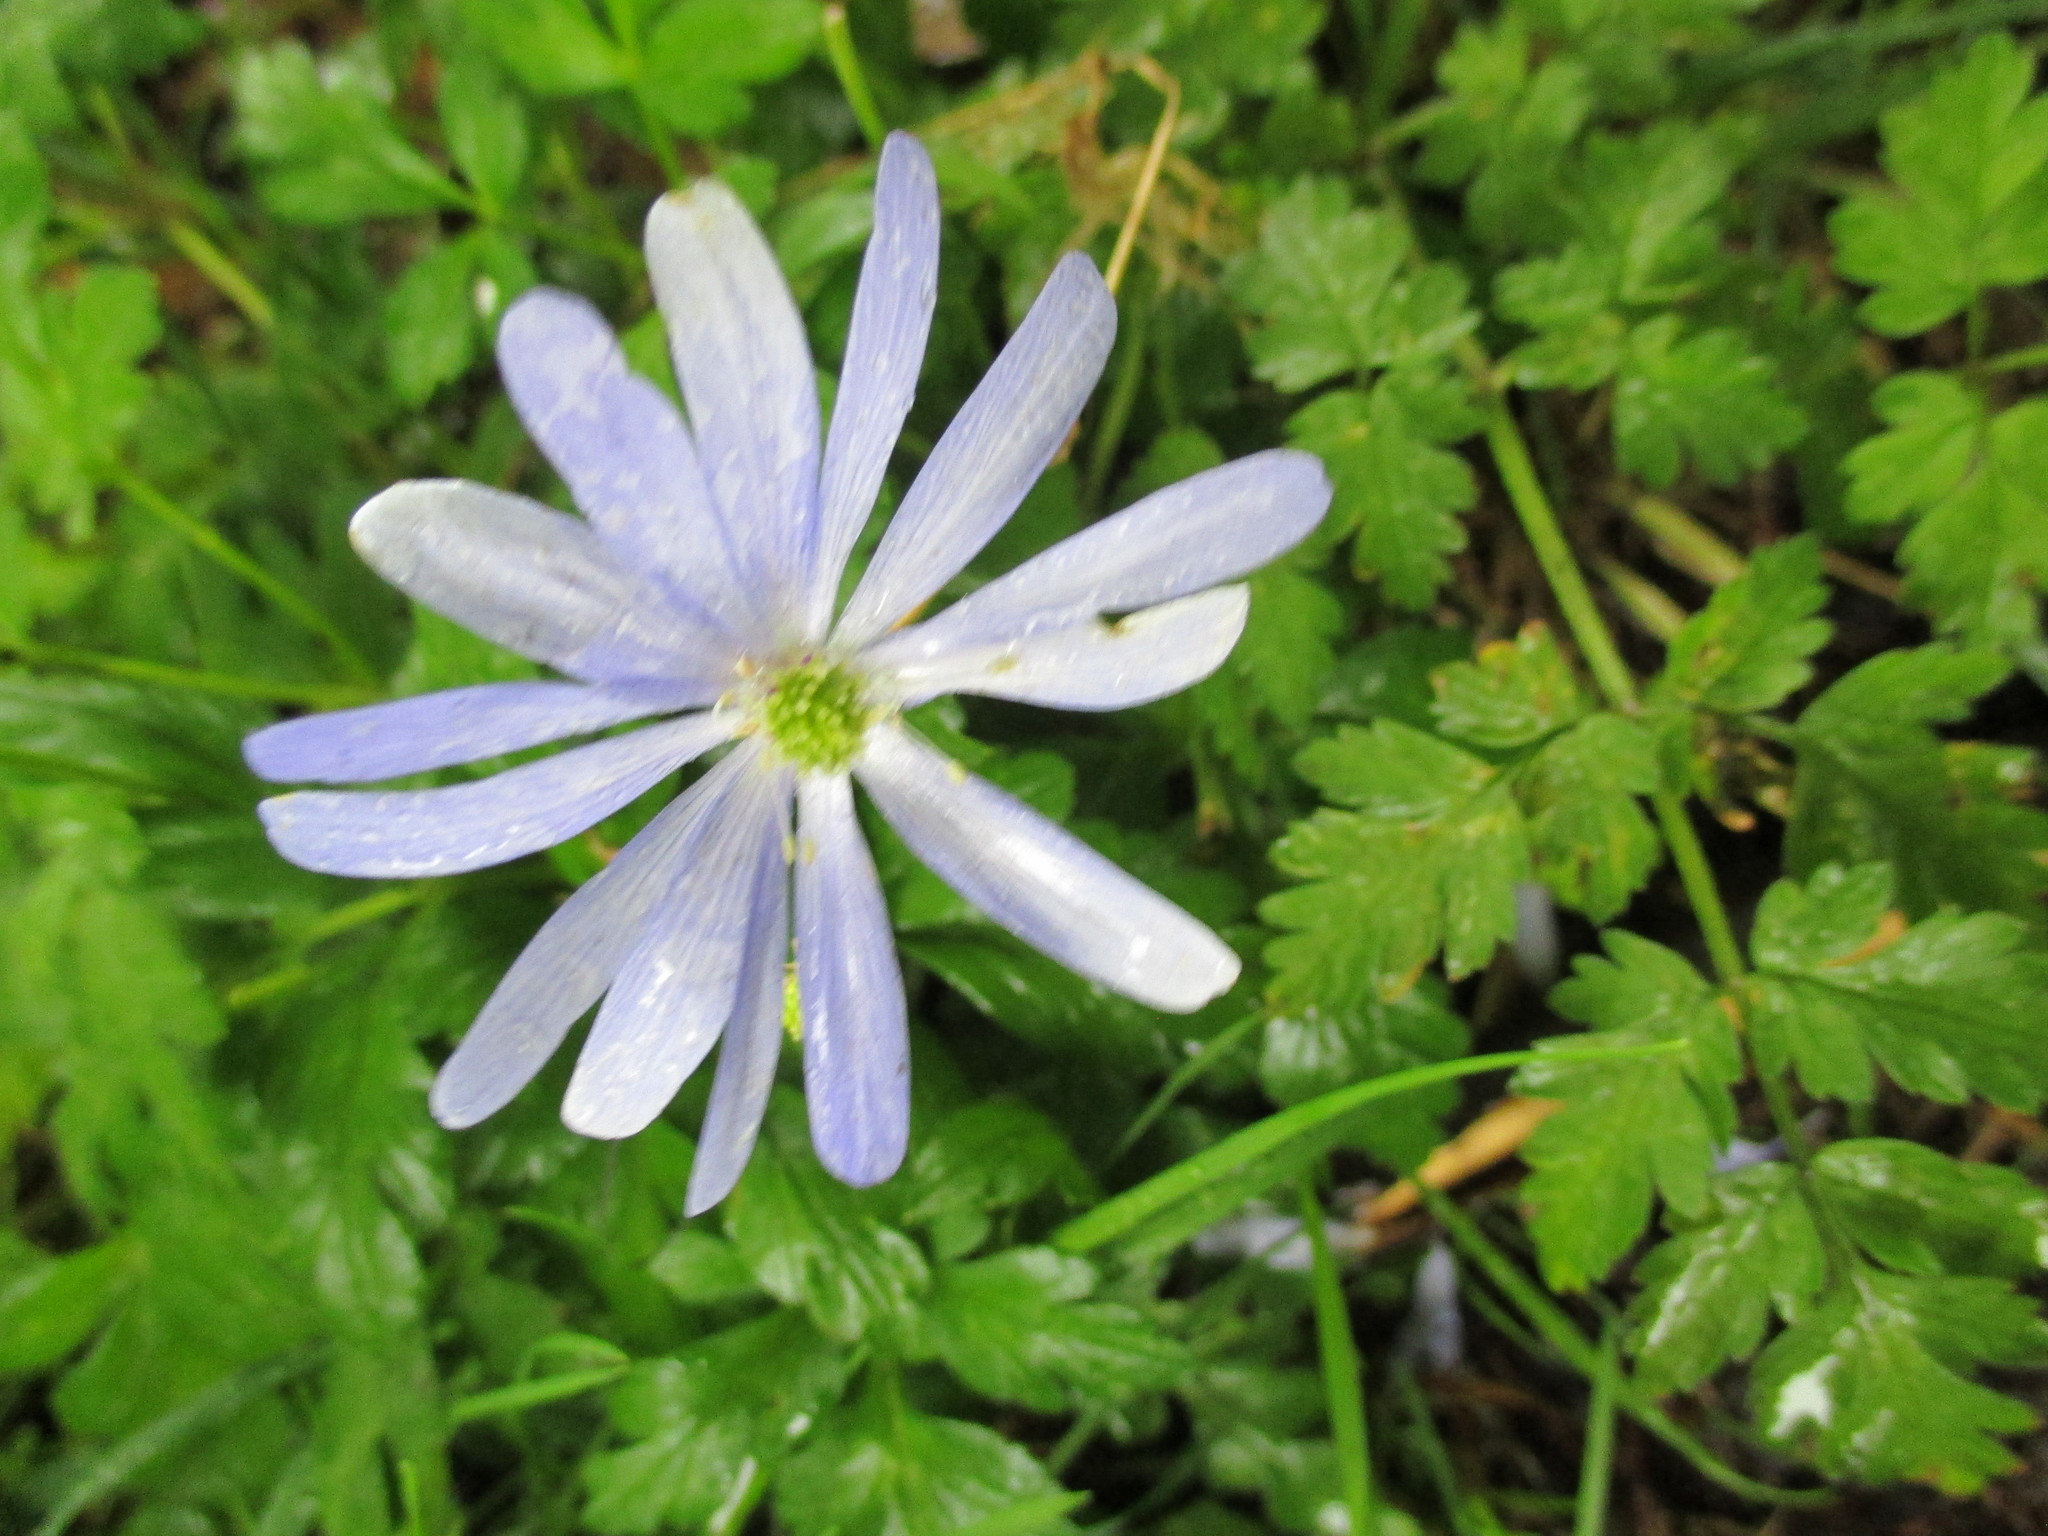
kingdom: Plantae
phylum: Tracheophyta
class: Magnoliopsida
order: Ranunculales
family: Ranunculaceae
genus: Anemone
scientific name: Anemone apennina
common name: Blue anemone
